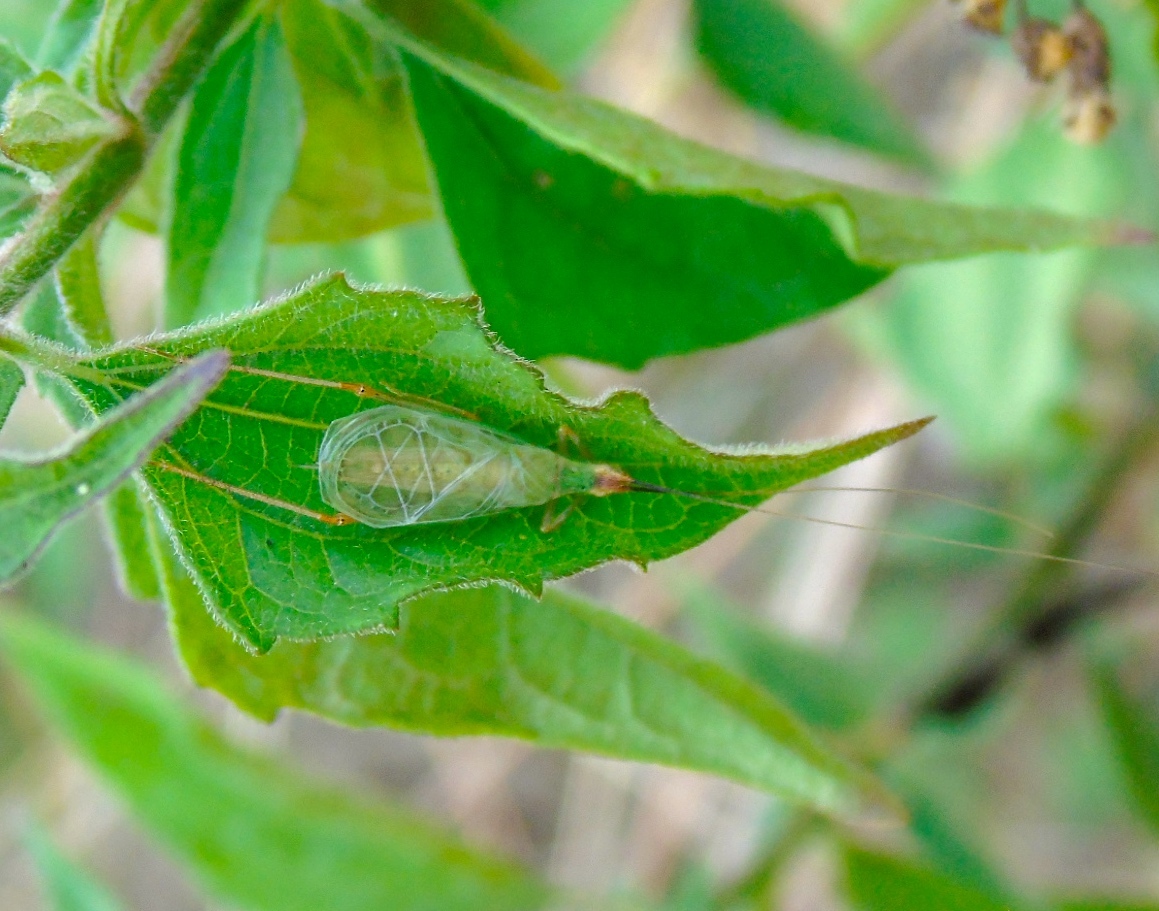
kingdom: Animalia
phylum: Arthropoda
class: Insecta
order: Orthoptera
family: Gryllidae
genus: Oecanthus
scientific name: Oecanthus
